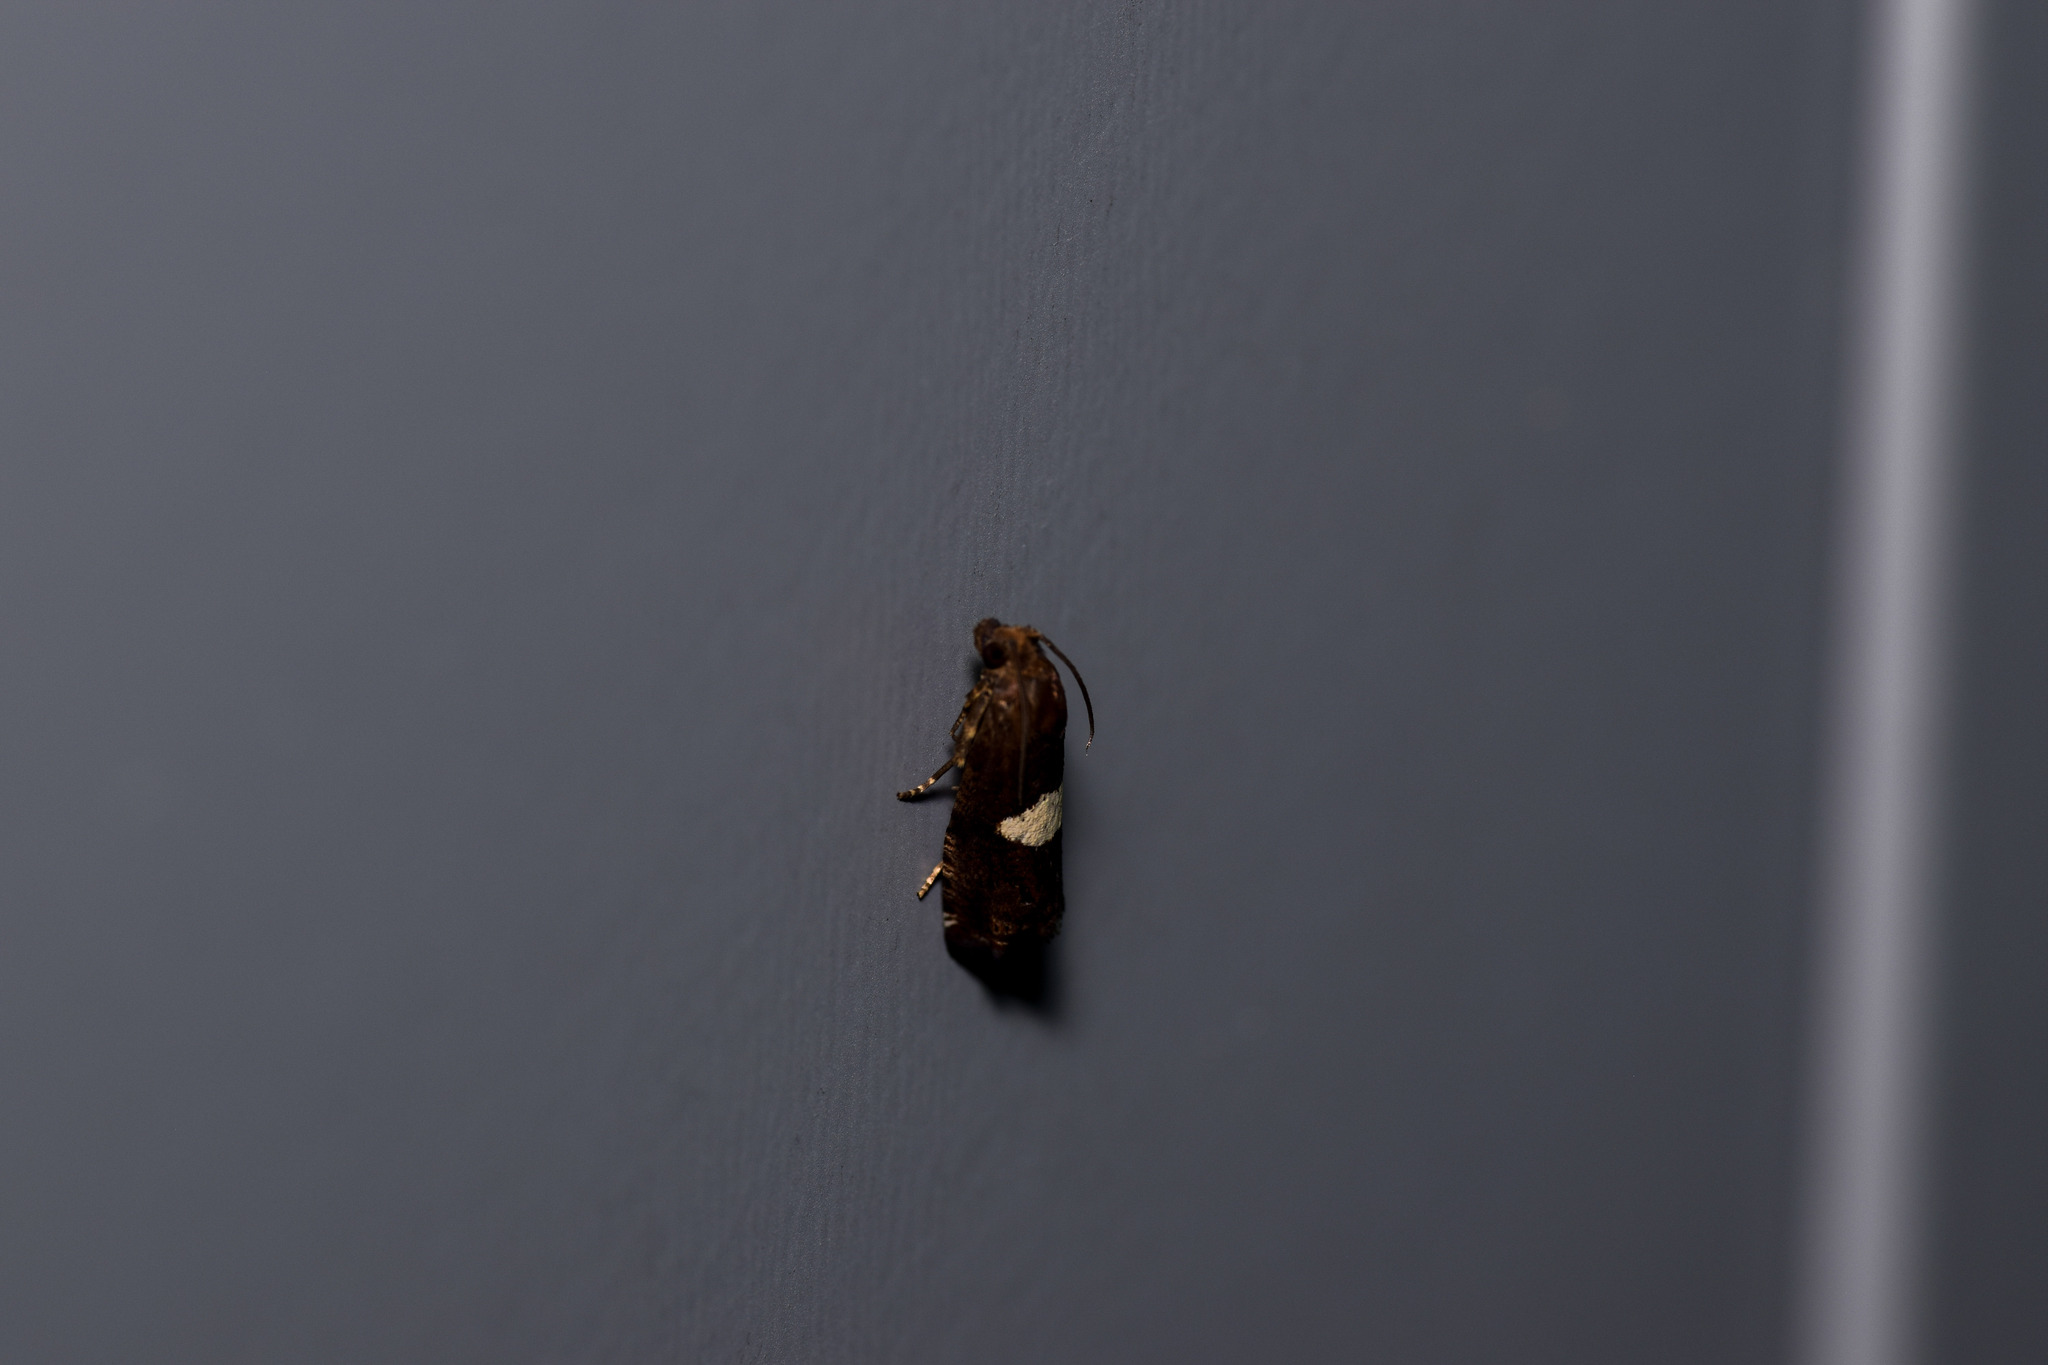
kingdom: Animalia
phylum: Arthropoda
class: Insecta
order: Lepidoptera
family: Tortricidae
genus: Epiblema
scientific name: Epiblema gibsoni
